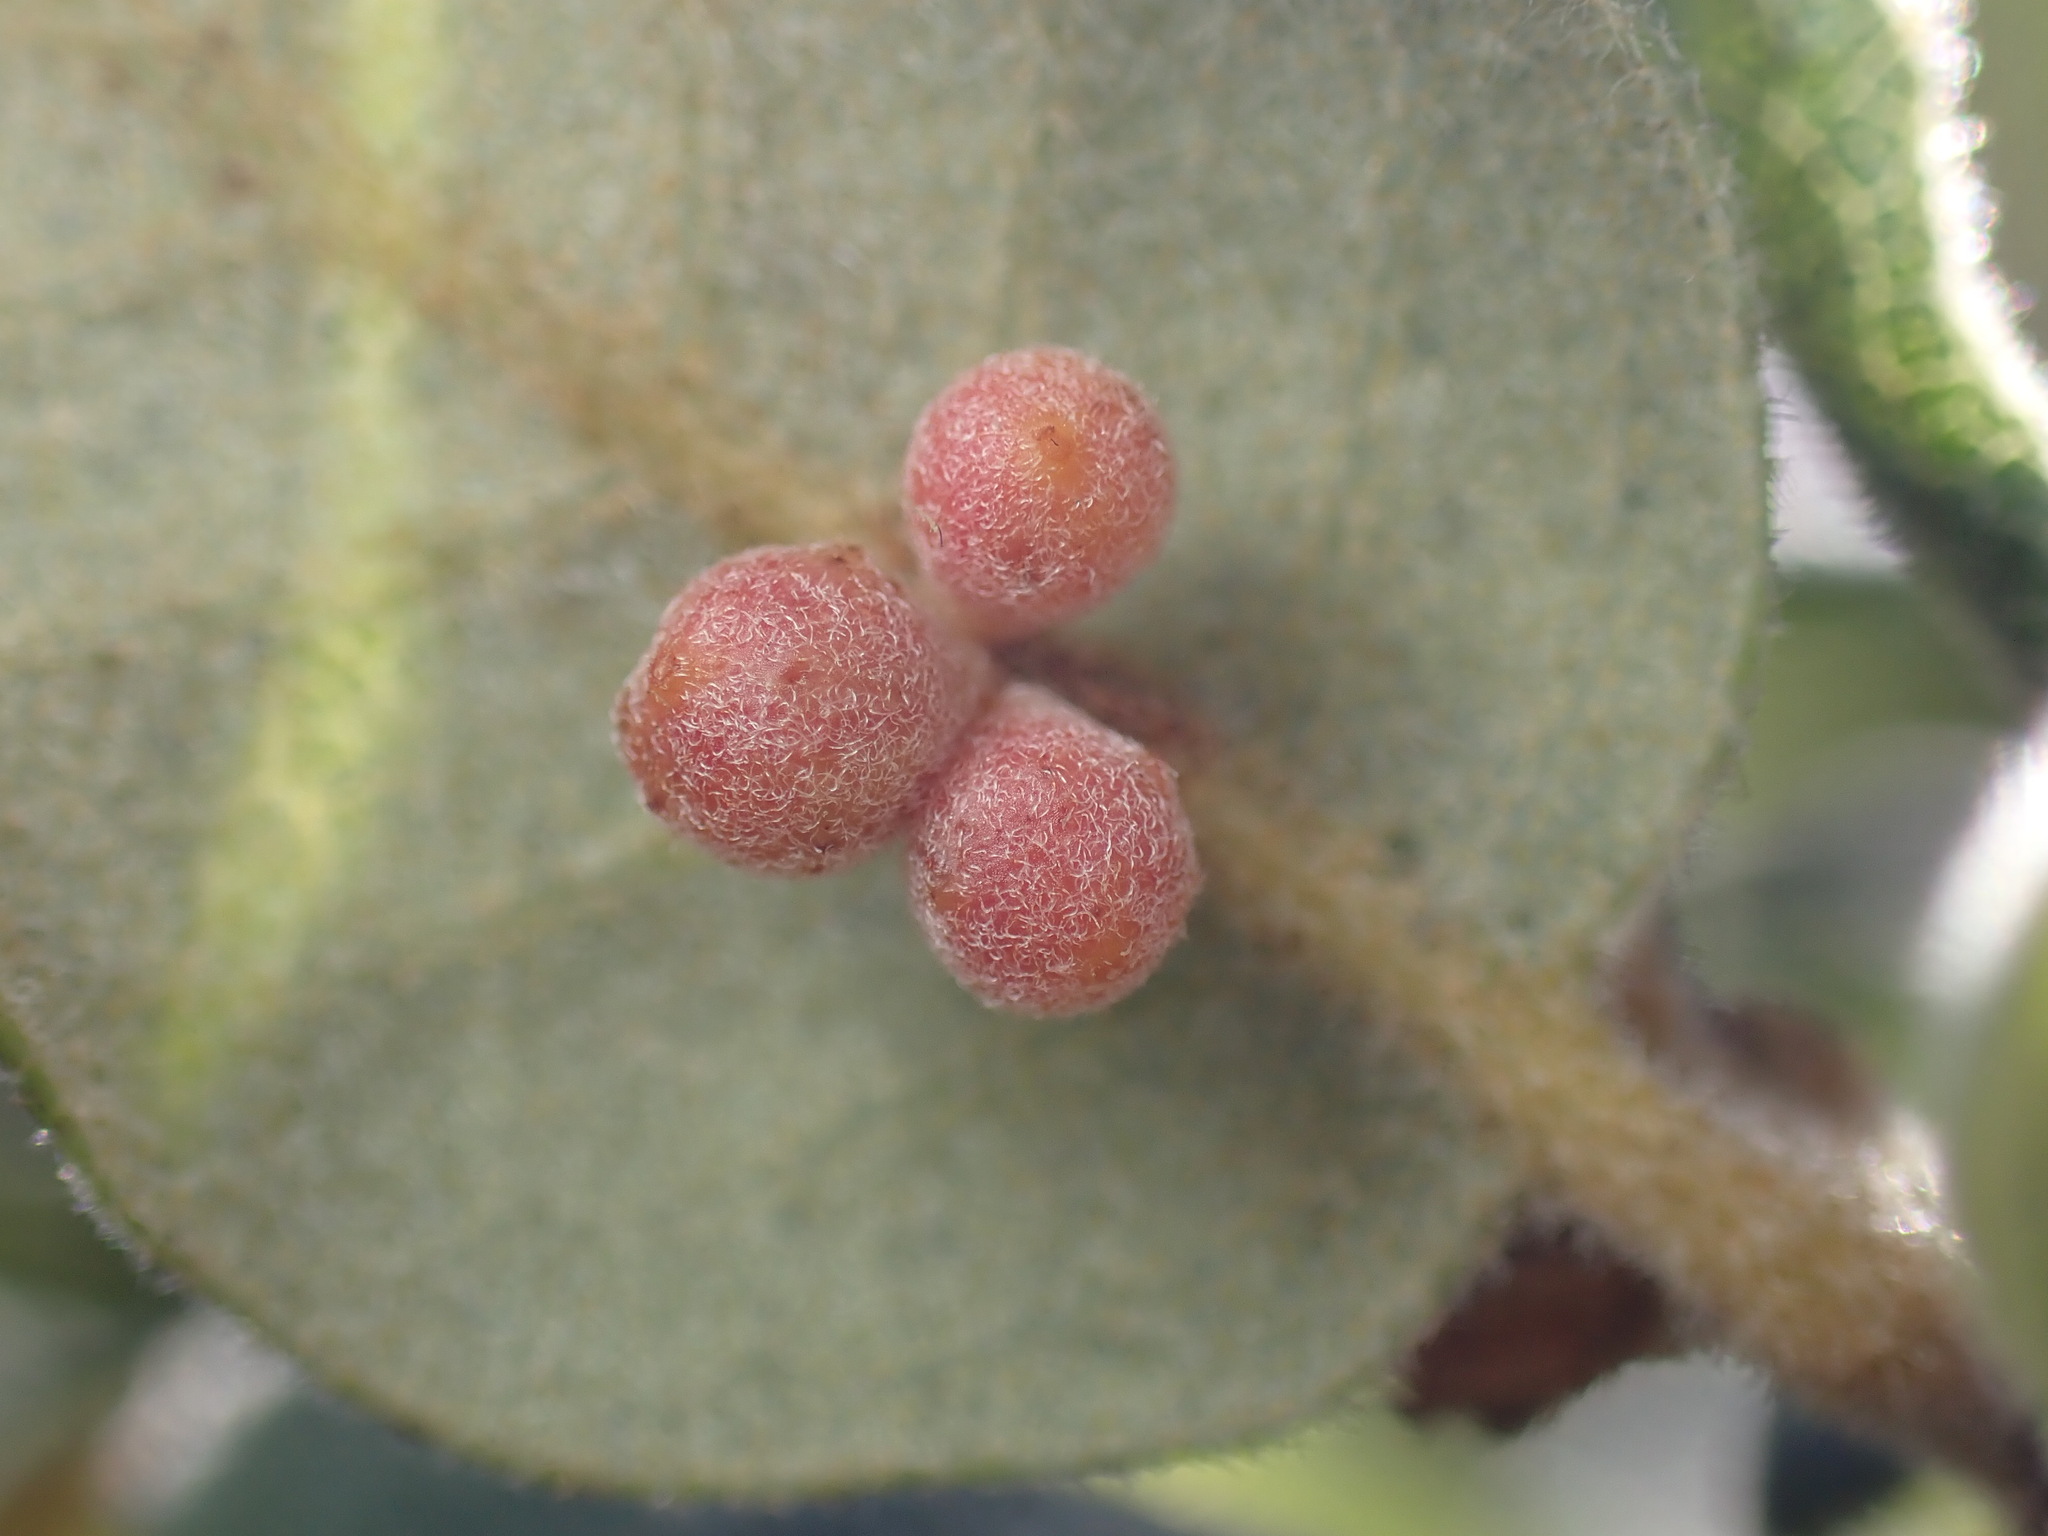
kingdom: Animalia
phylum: Arthropoda
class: Insecta
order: Hymenoptera
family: Cynipidae
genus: Andricus
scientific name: Andricus
